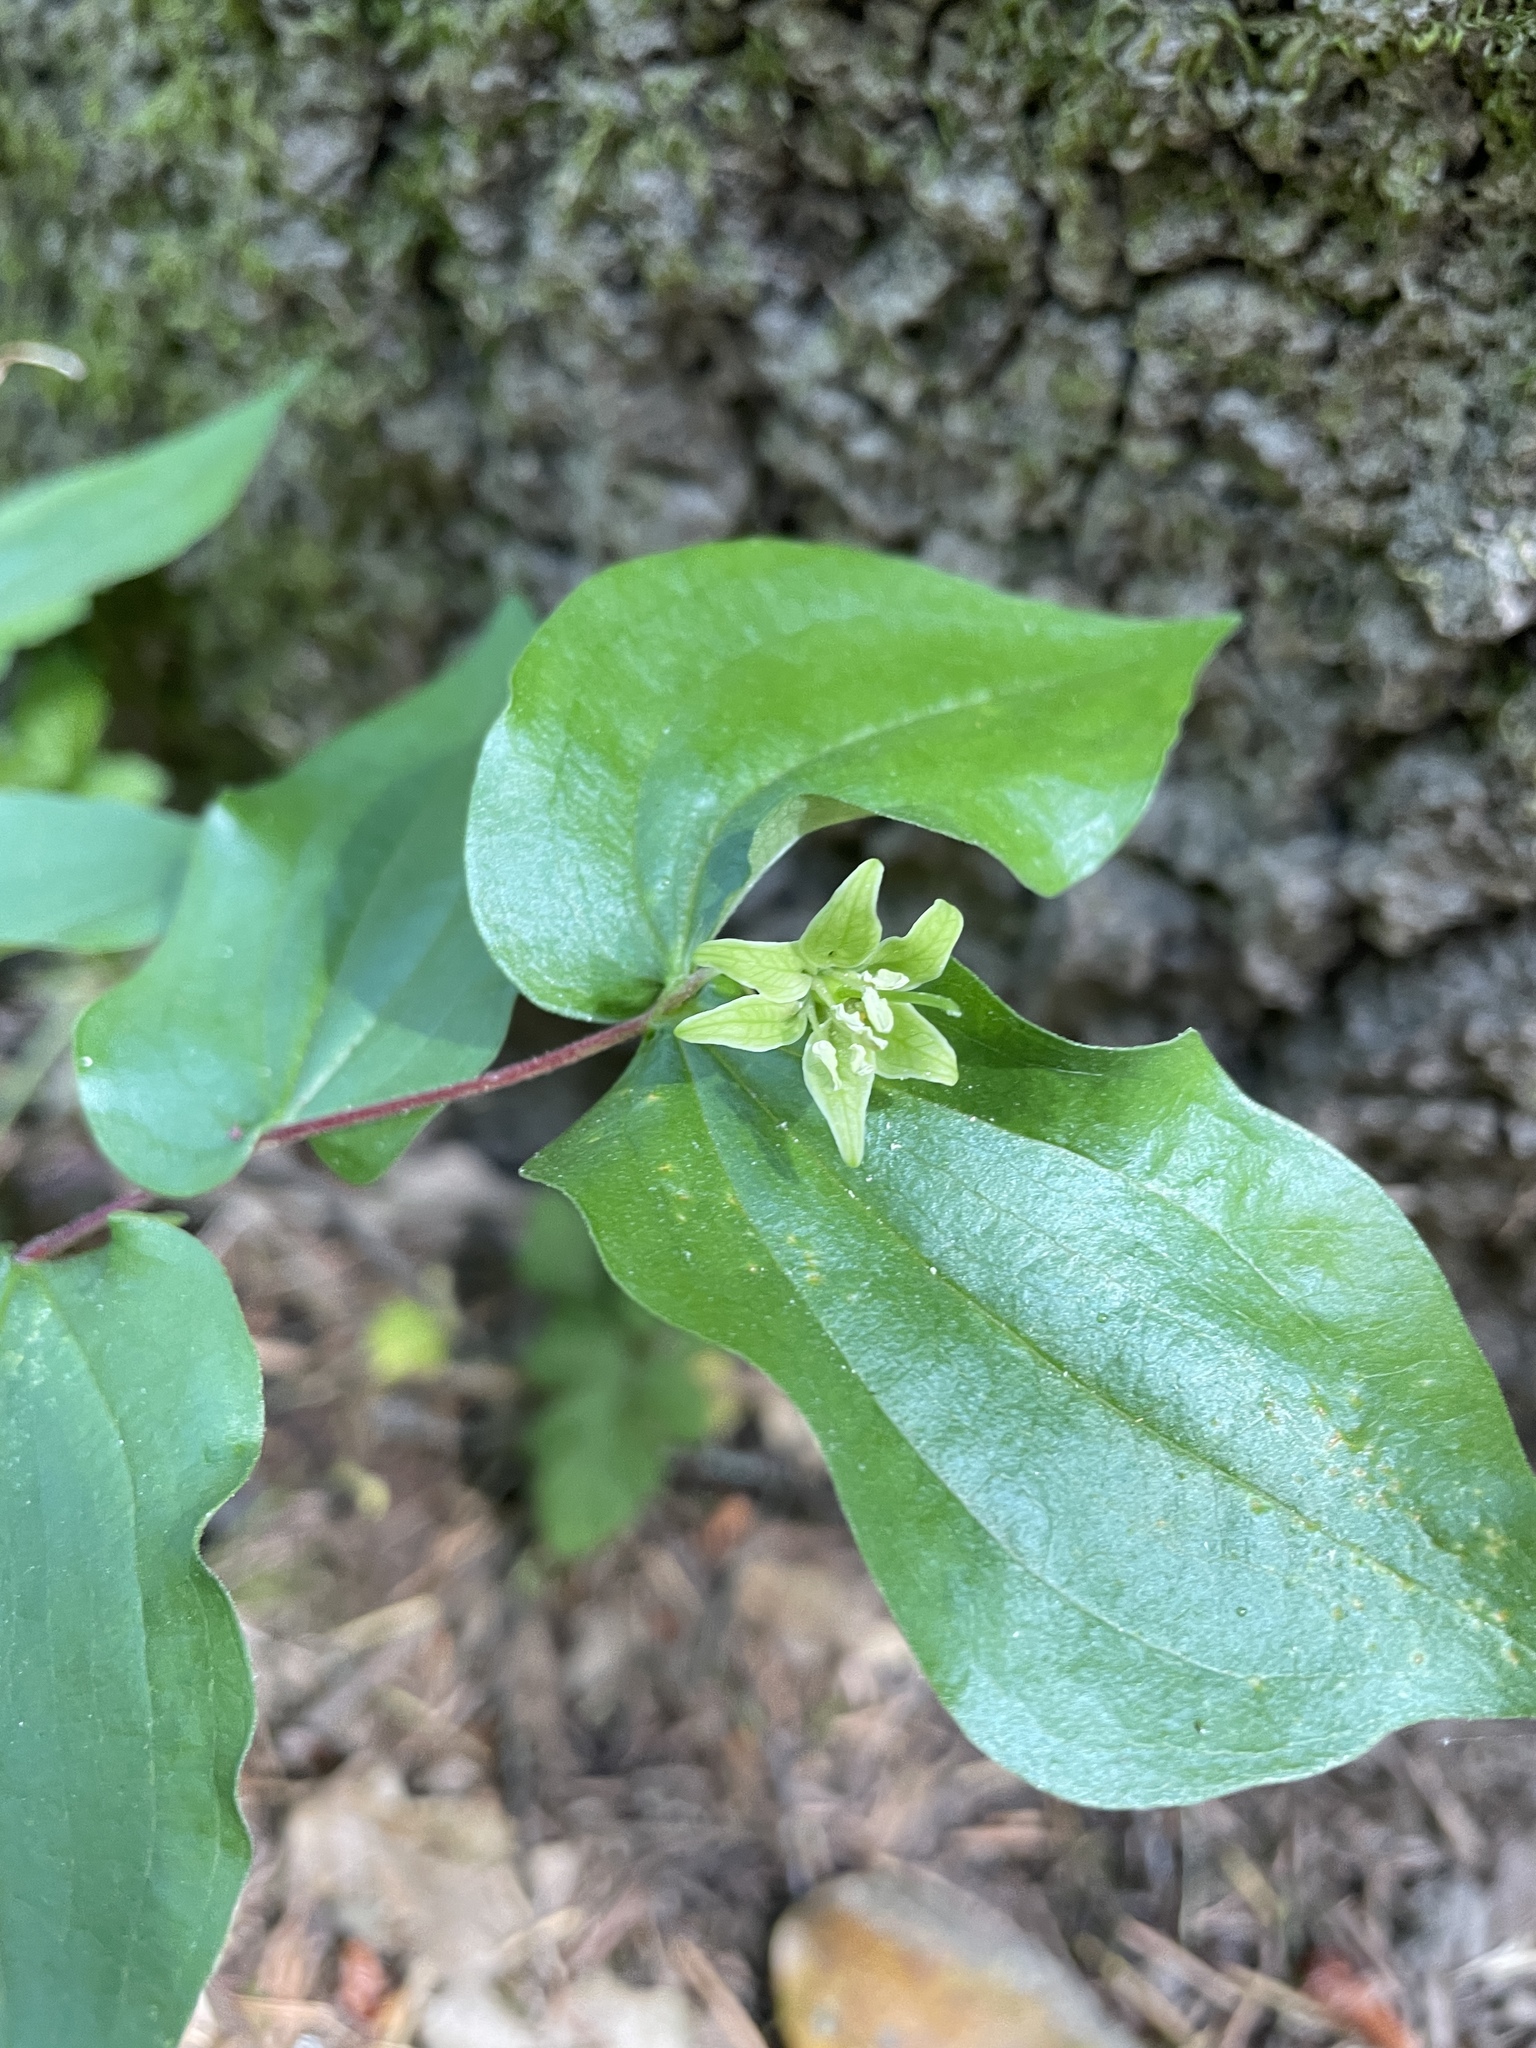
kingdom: Plantae
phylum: Tracheophyta
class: Liliopsida
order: Liliales
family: Liliaceae
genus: Prosartes
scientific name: Prosartes hookeri
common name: Fairy-bells
